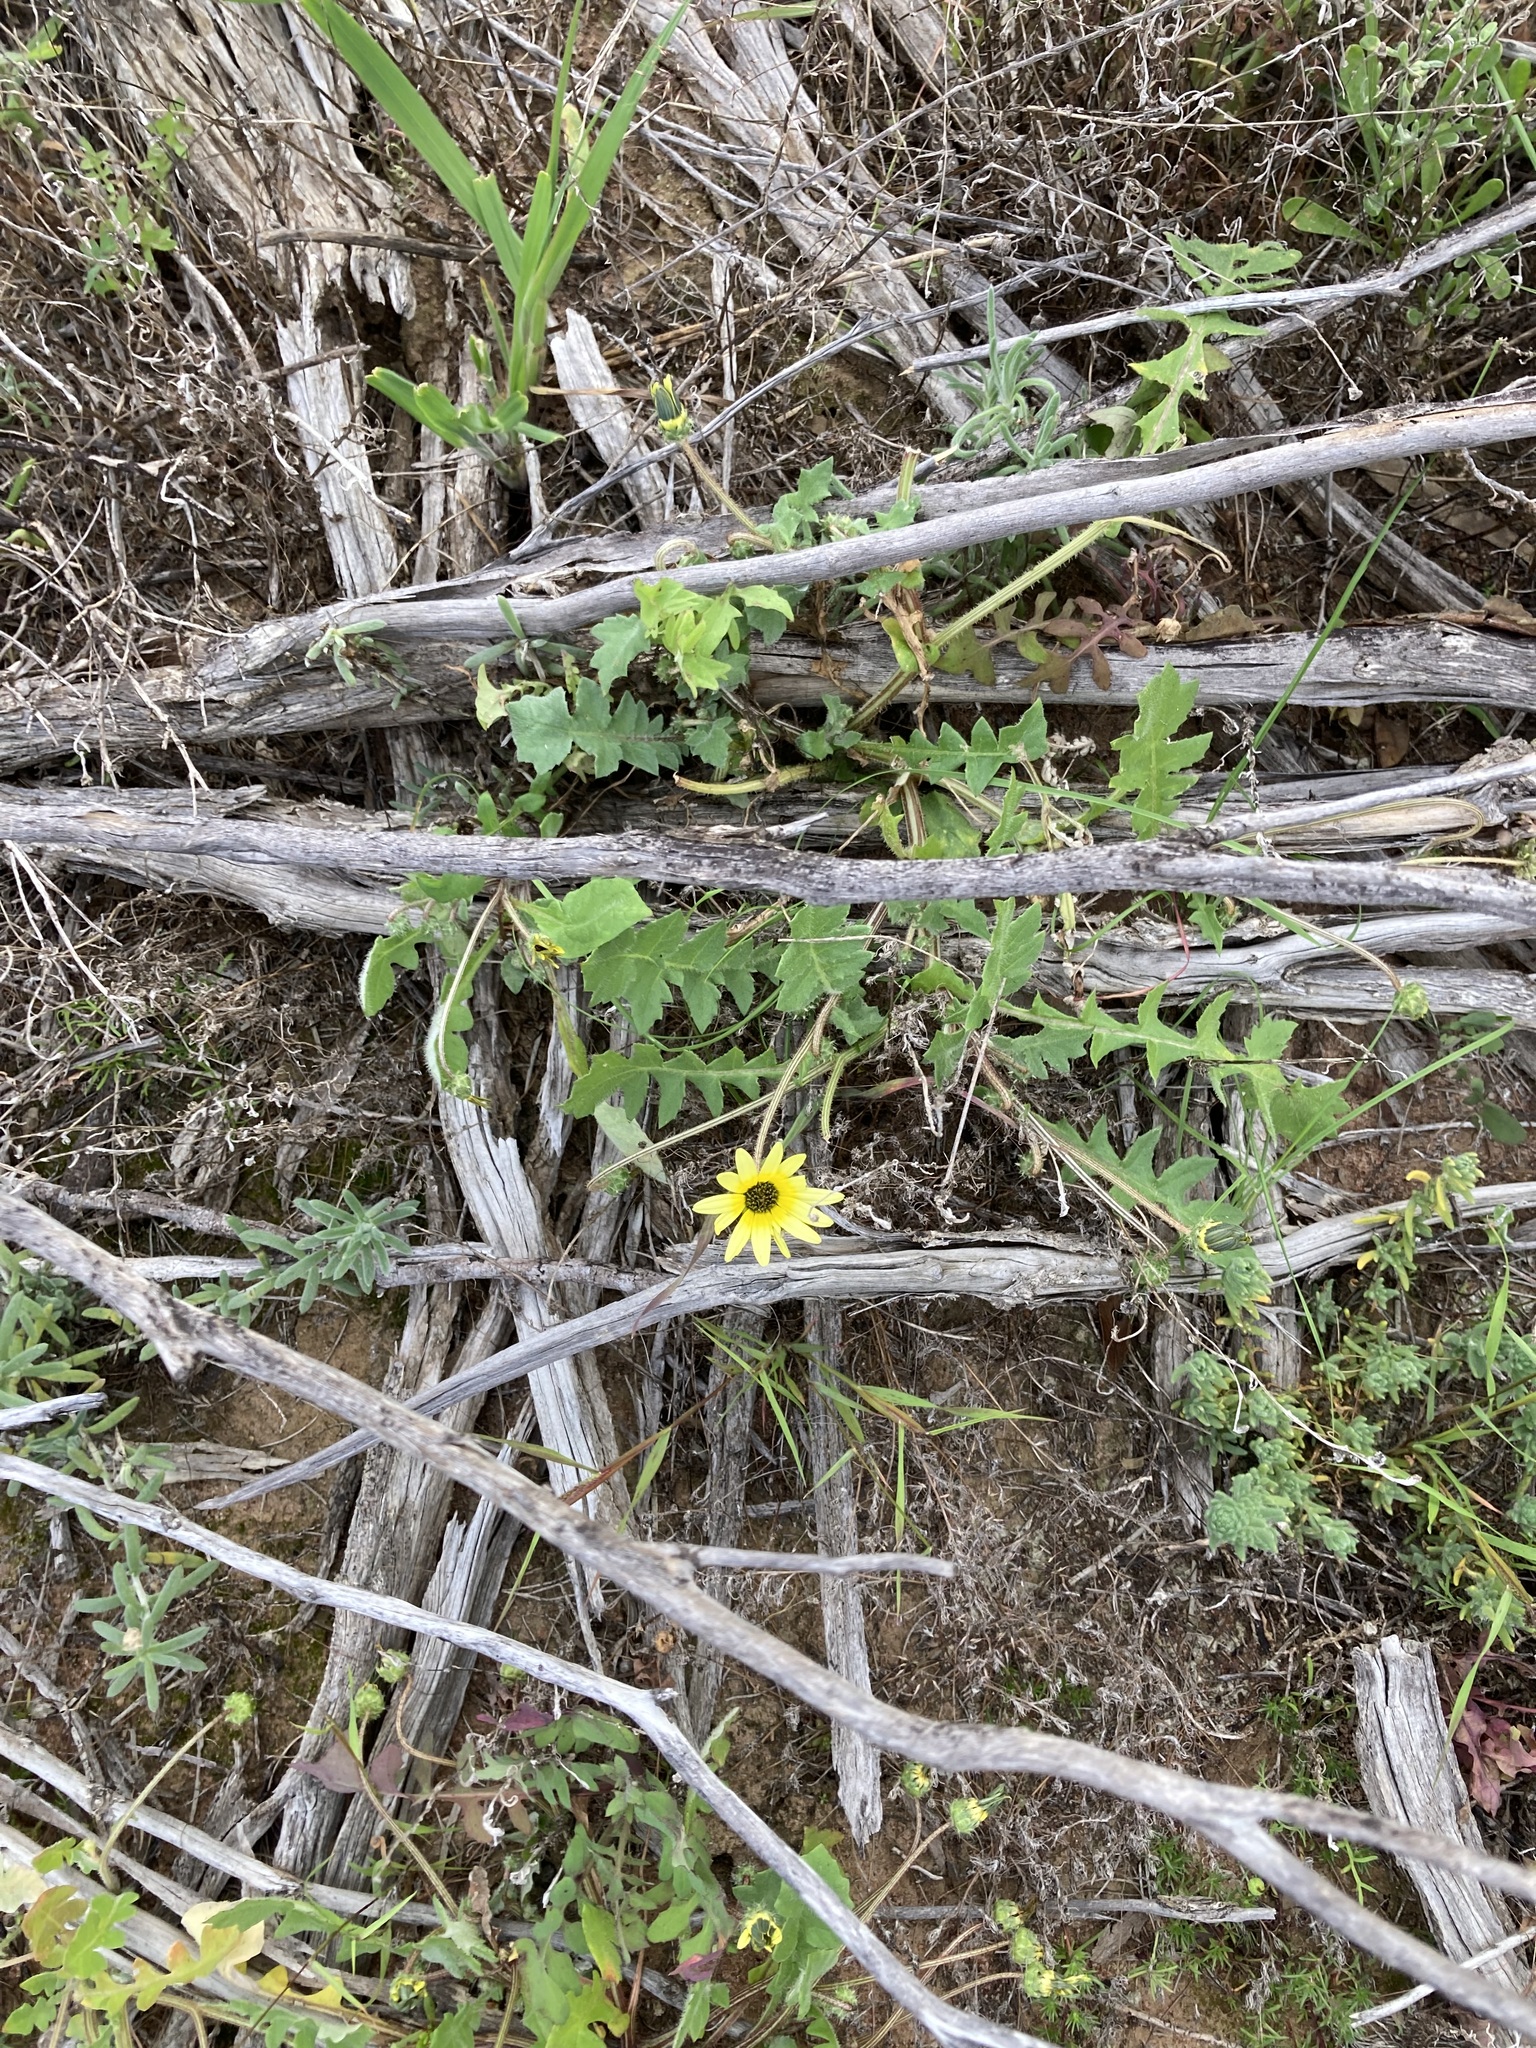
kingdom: Plantae
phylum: Tracheophyta
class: Magnoliopsida
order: Asterales
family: Asteraceae
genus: Arctotheca
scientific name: Arctotheca calendula
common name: Capeweed
